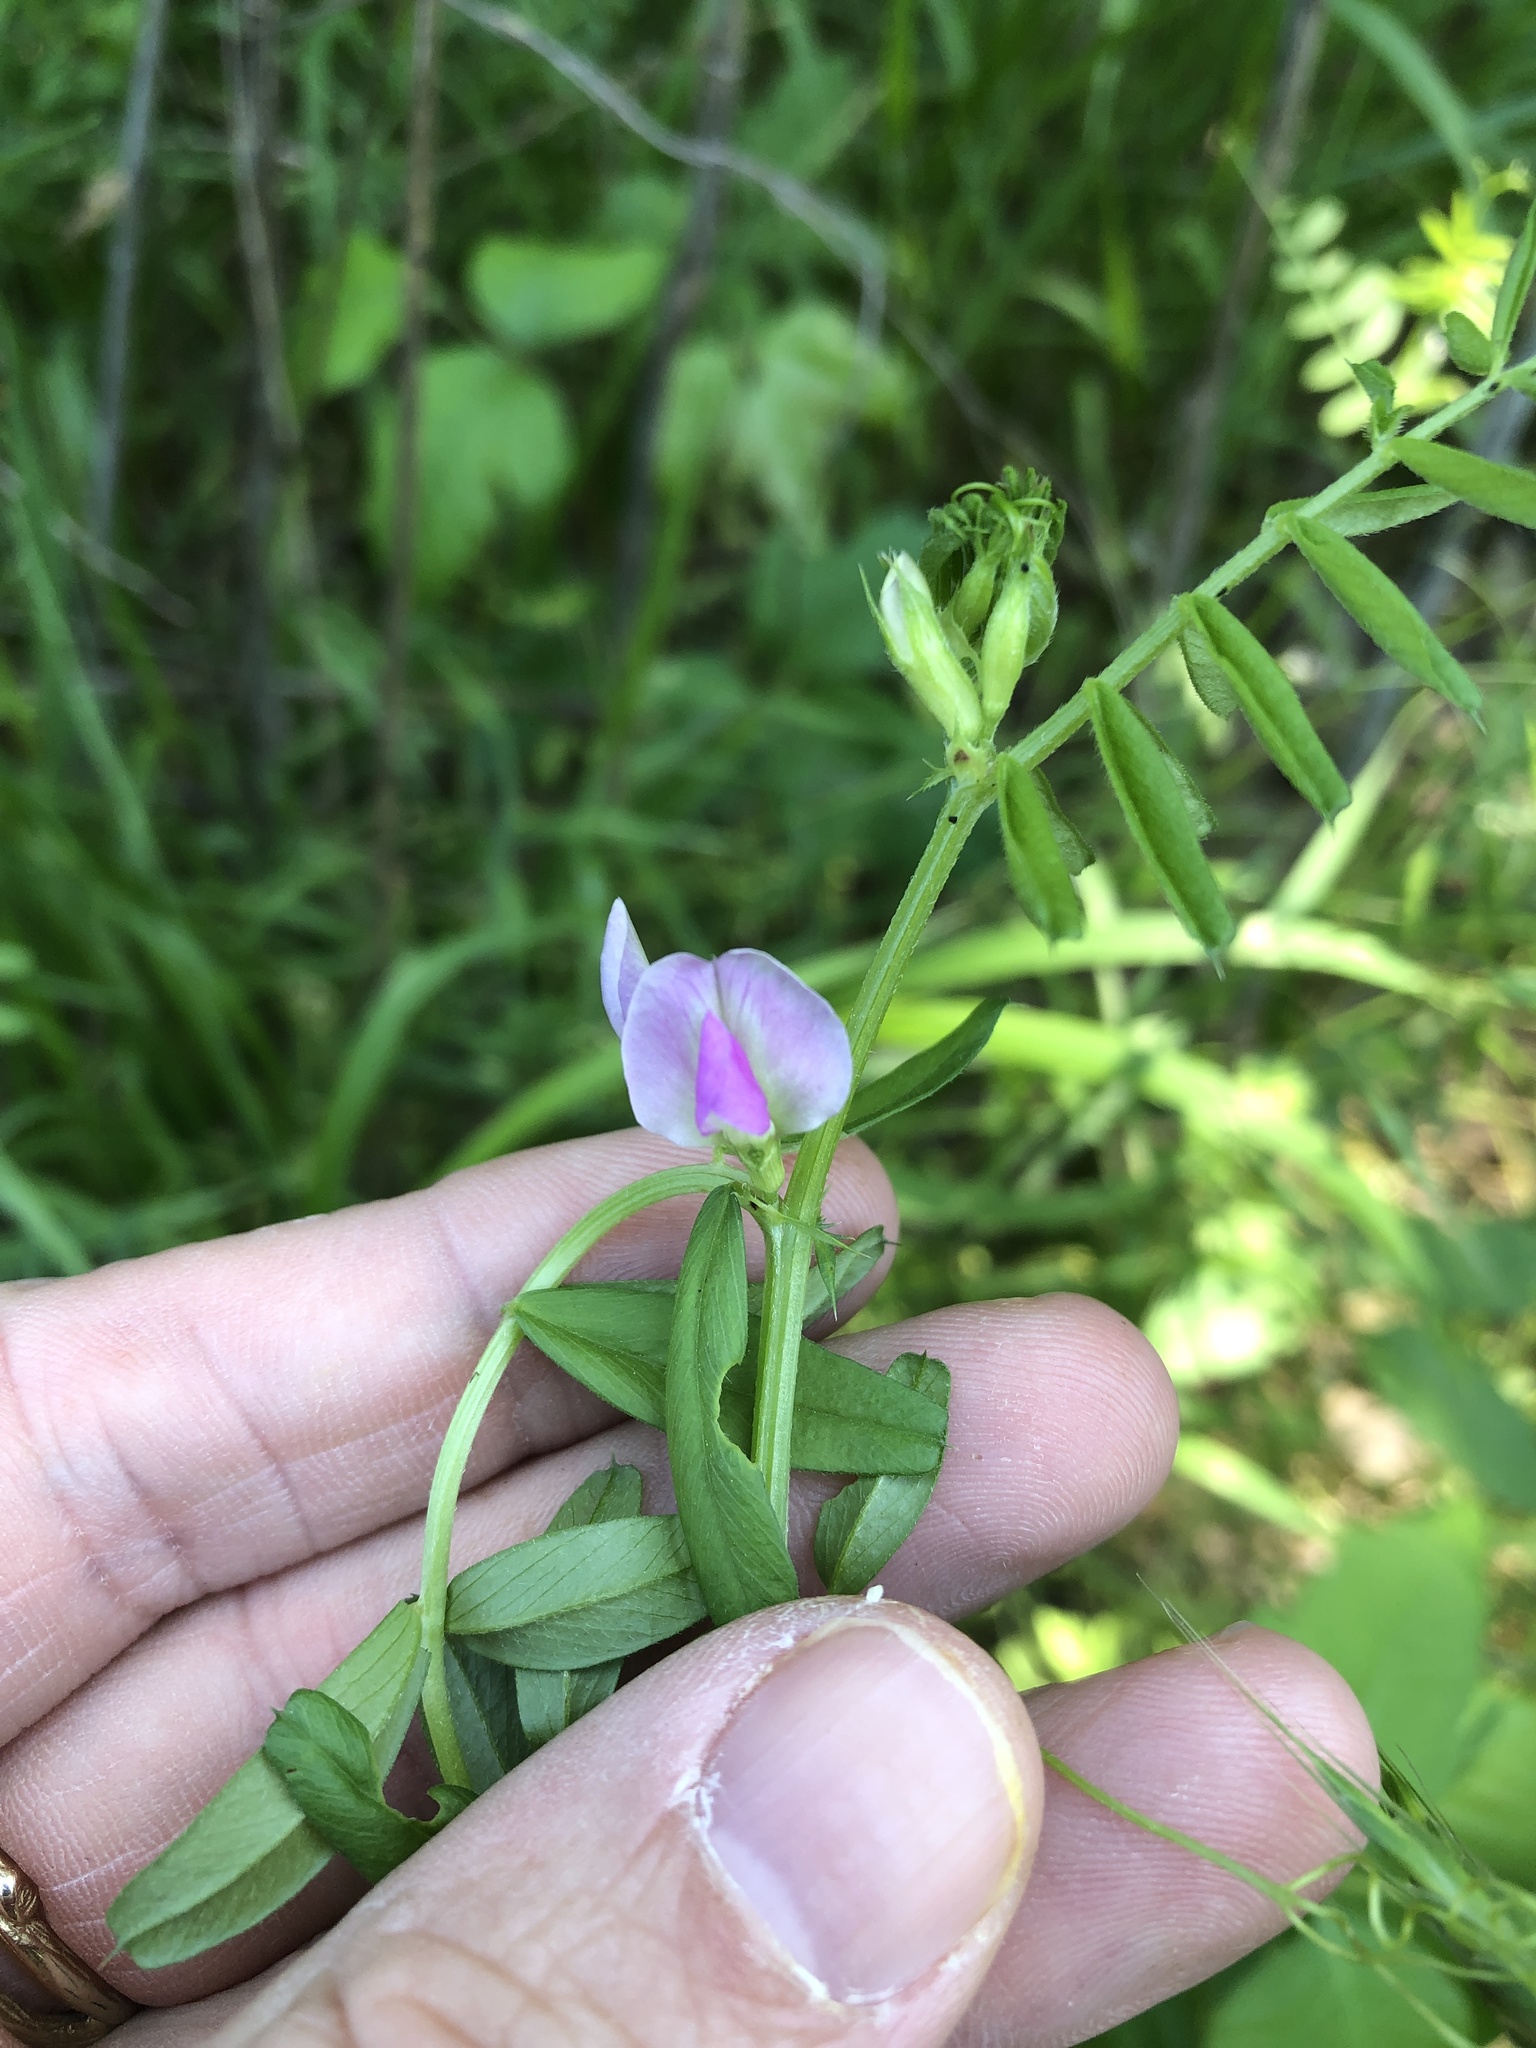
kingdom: Plantae
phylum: Tracheophyta
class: Magnoliopsida
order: Fabales
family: Fabaceae
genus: Vicia
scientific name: Vicia sativa
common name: Garden vetch
